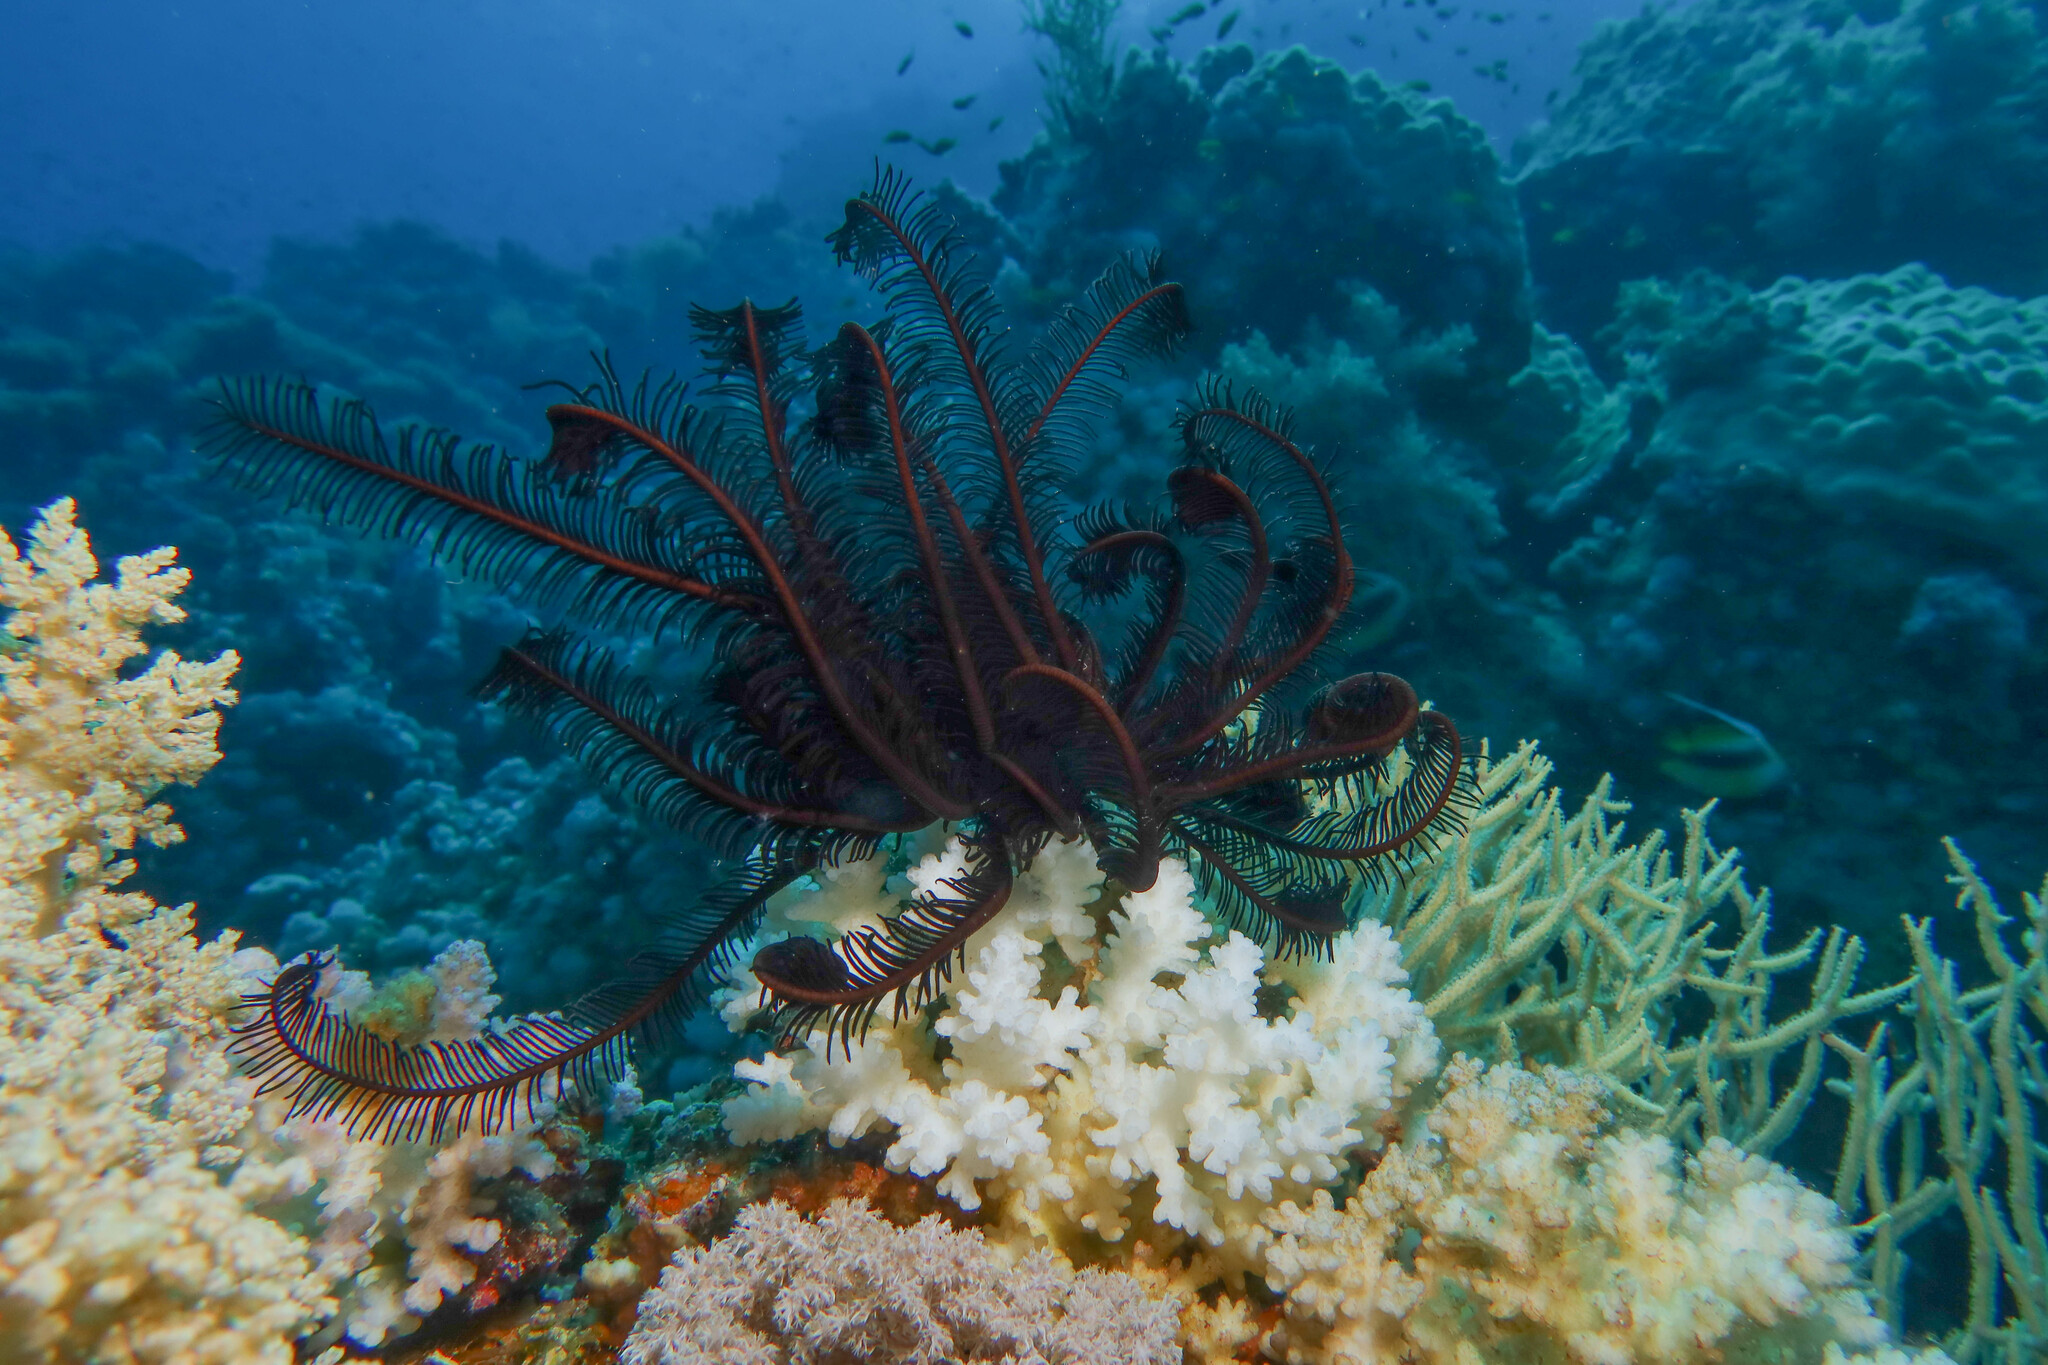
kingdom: Animalia
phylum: Echinodermata
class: Crinoidea
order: Comatulida
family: Comatulidae
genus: Capillaster
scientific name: Capillaster multiradiatus
